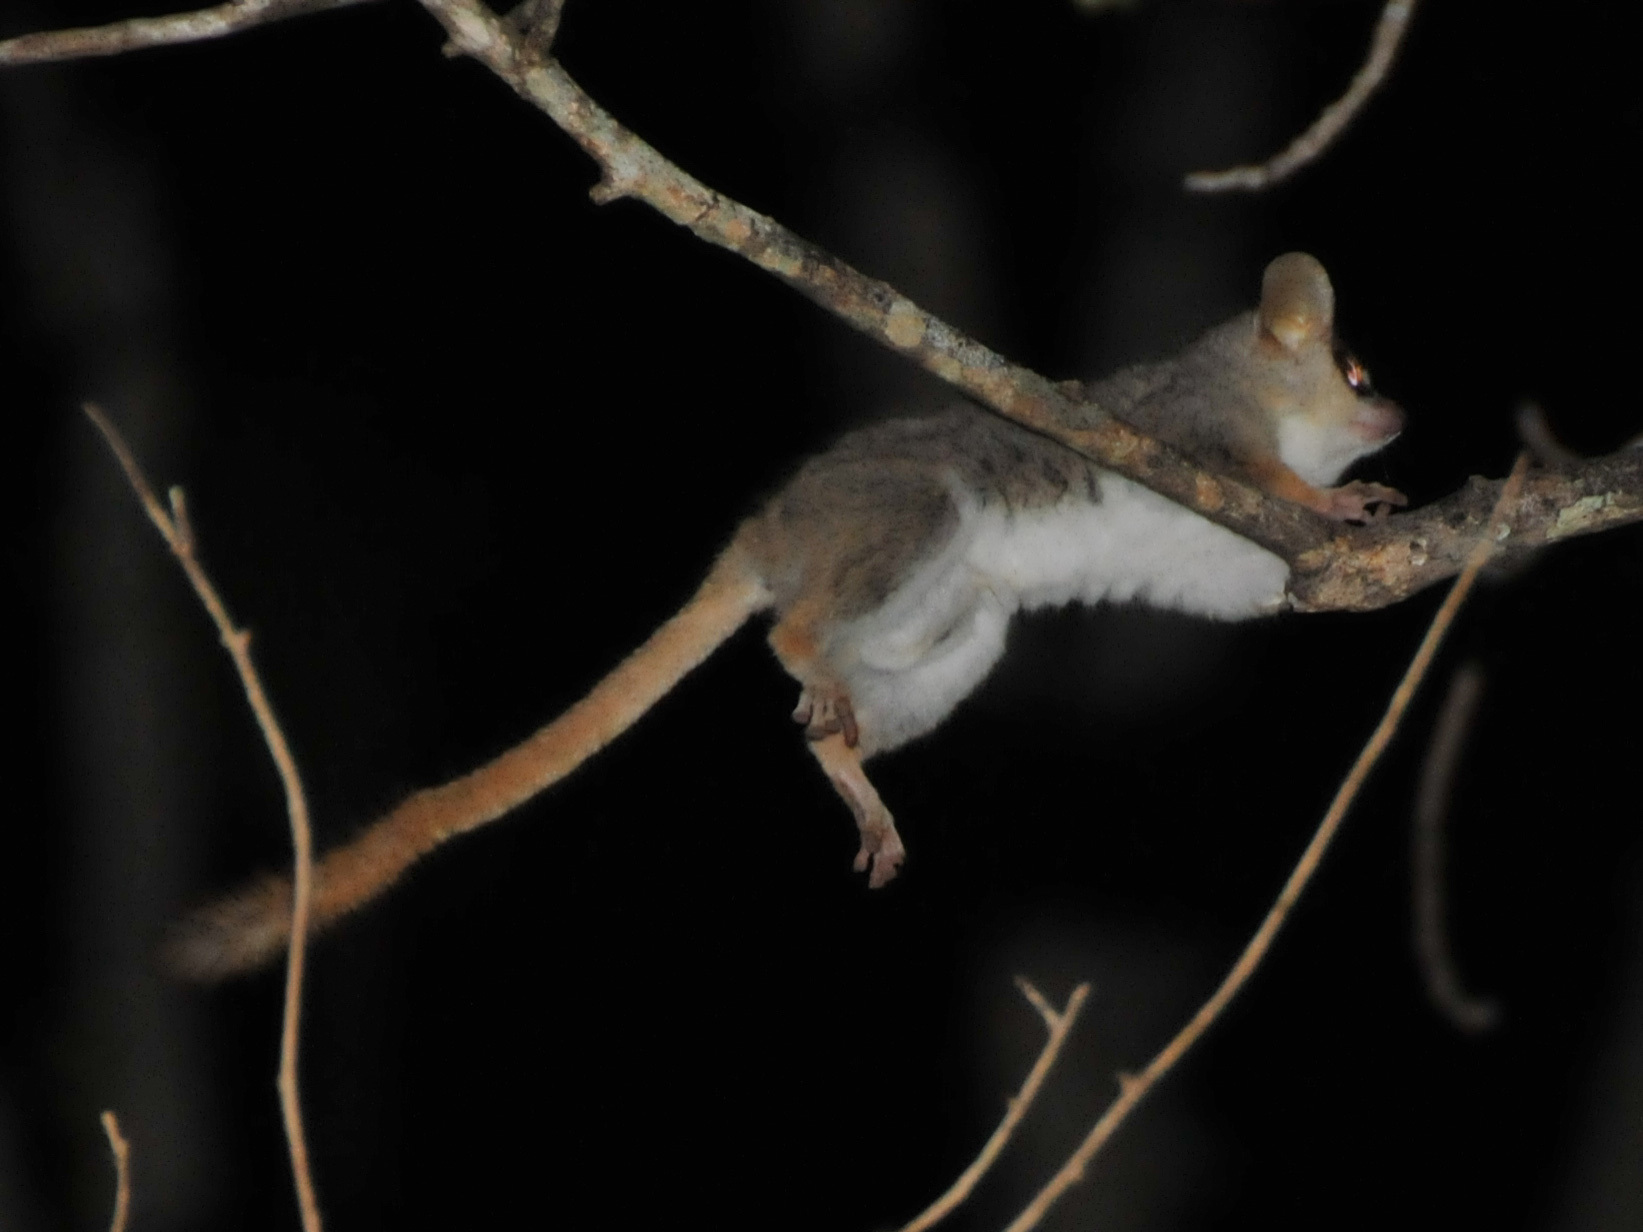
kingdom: Animalia
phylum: Chordata
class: Mammalia
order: Primates
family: Cheirogaleidae
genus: Microcebus
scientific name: Microcebus
